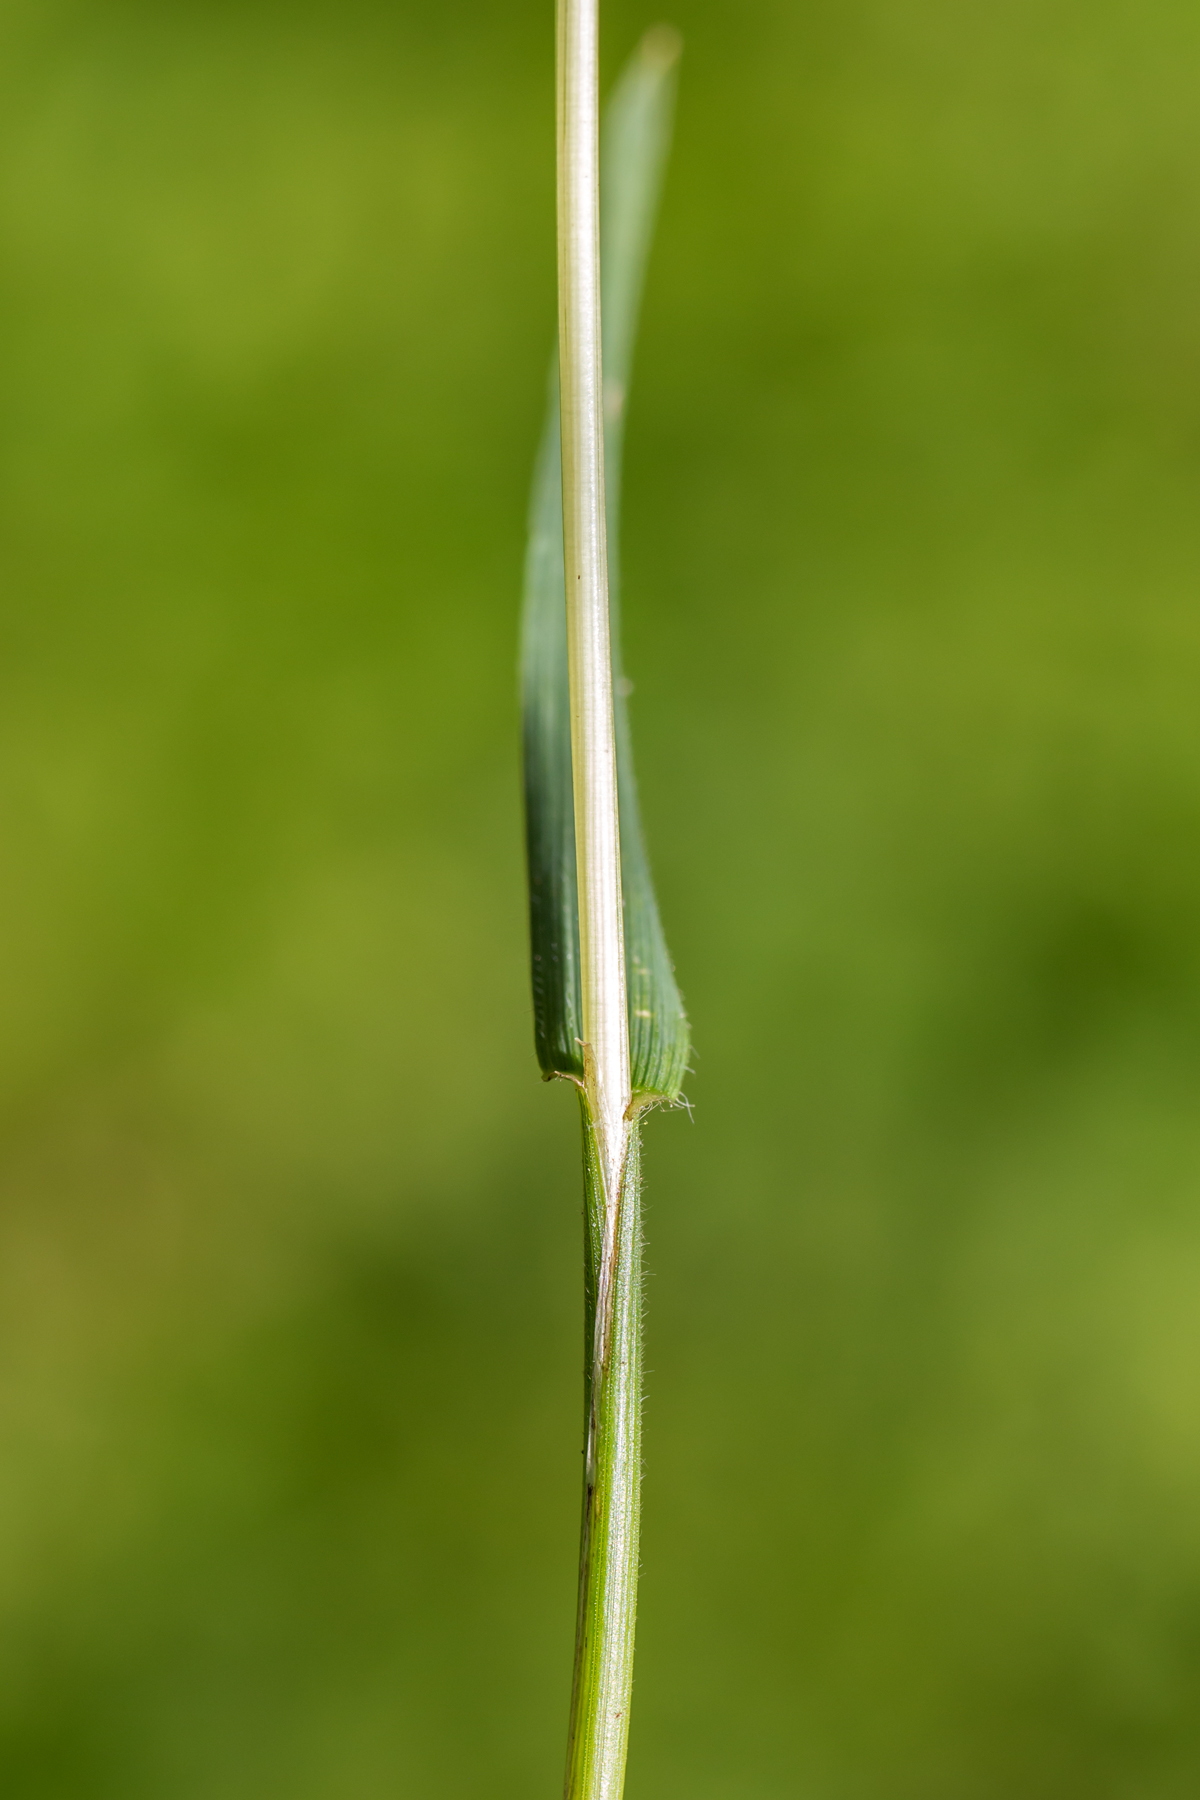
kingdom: Plantae
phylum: Tracheophyta
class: Liliopsida
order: Poales
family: Poaceae
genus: Anthoxanthum
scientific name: Anthoxanthum odoratum
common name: Sweet vernalgrass
